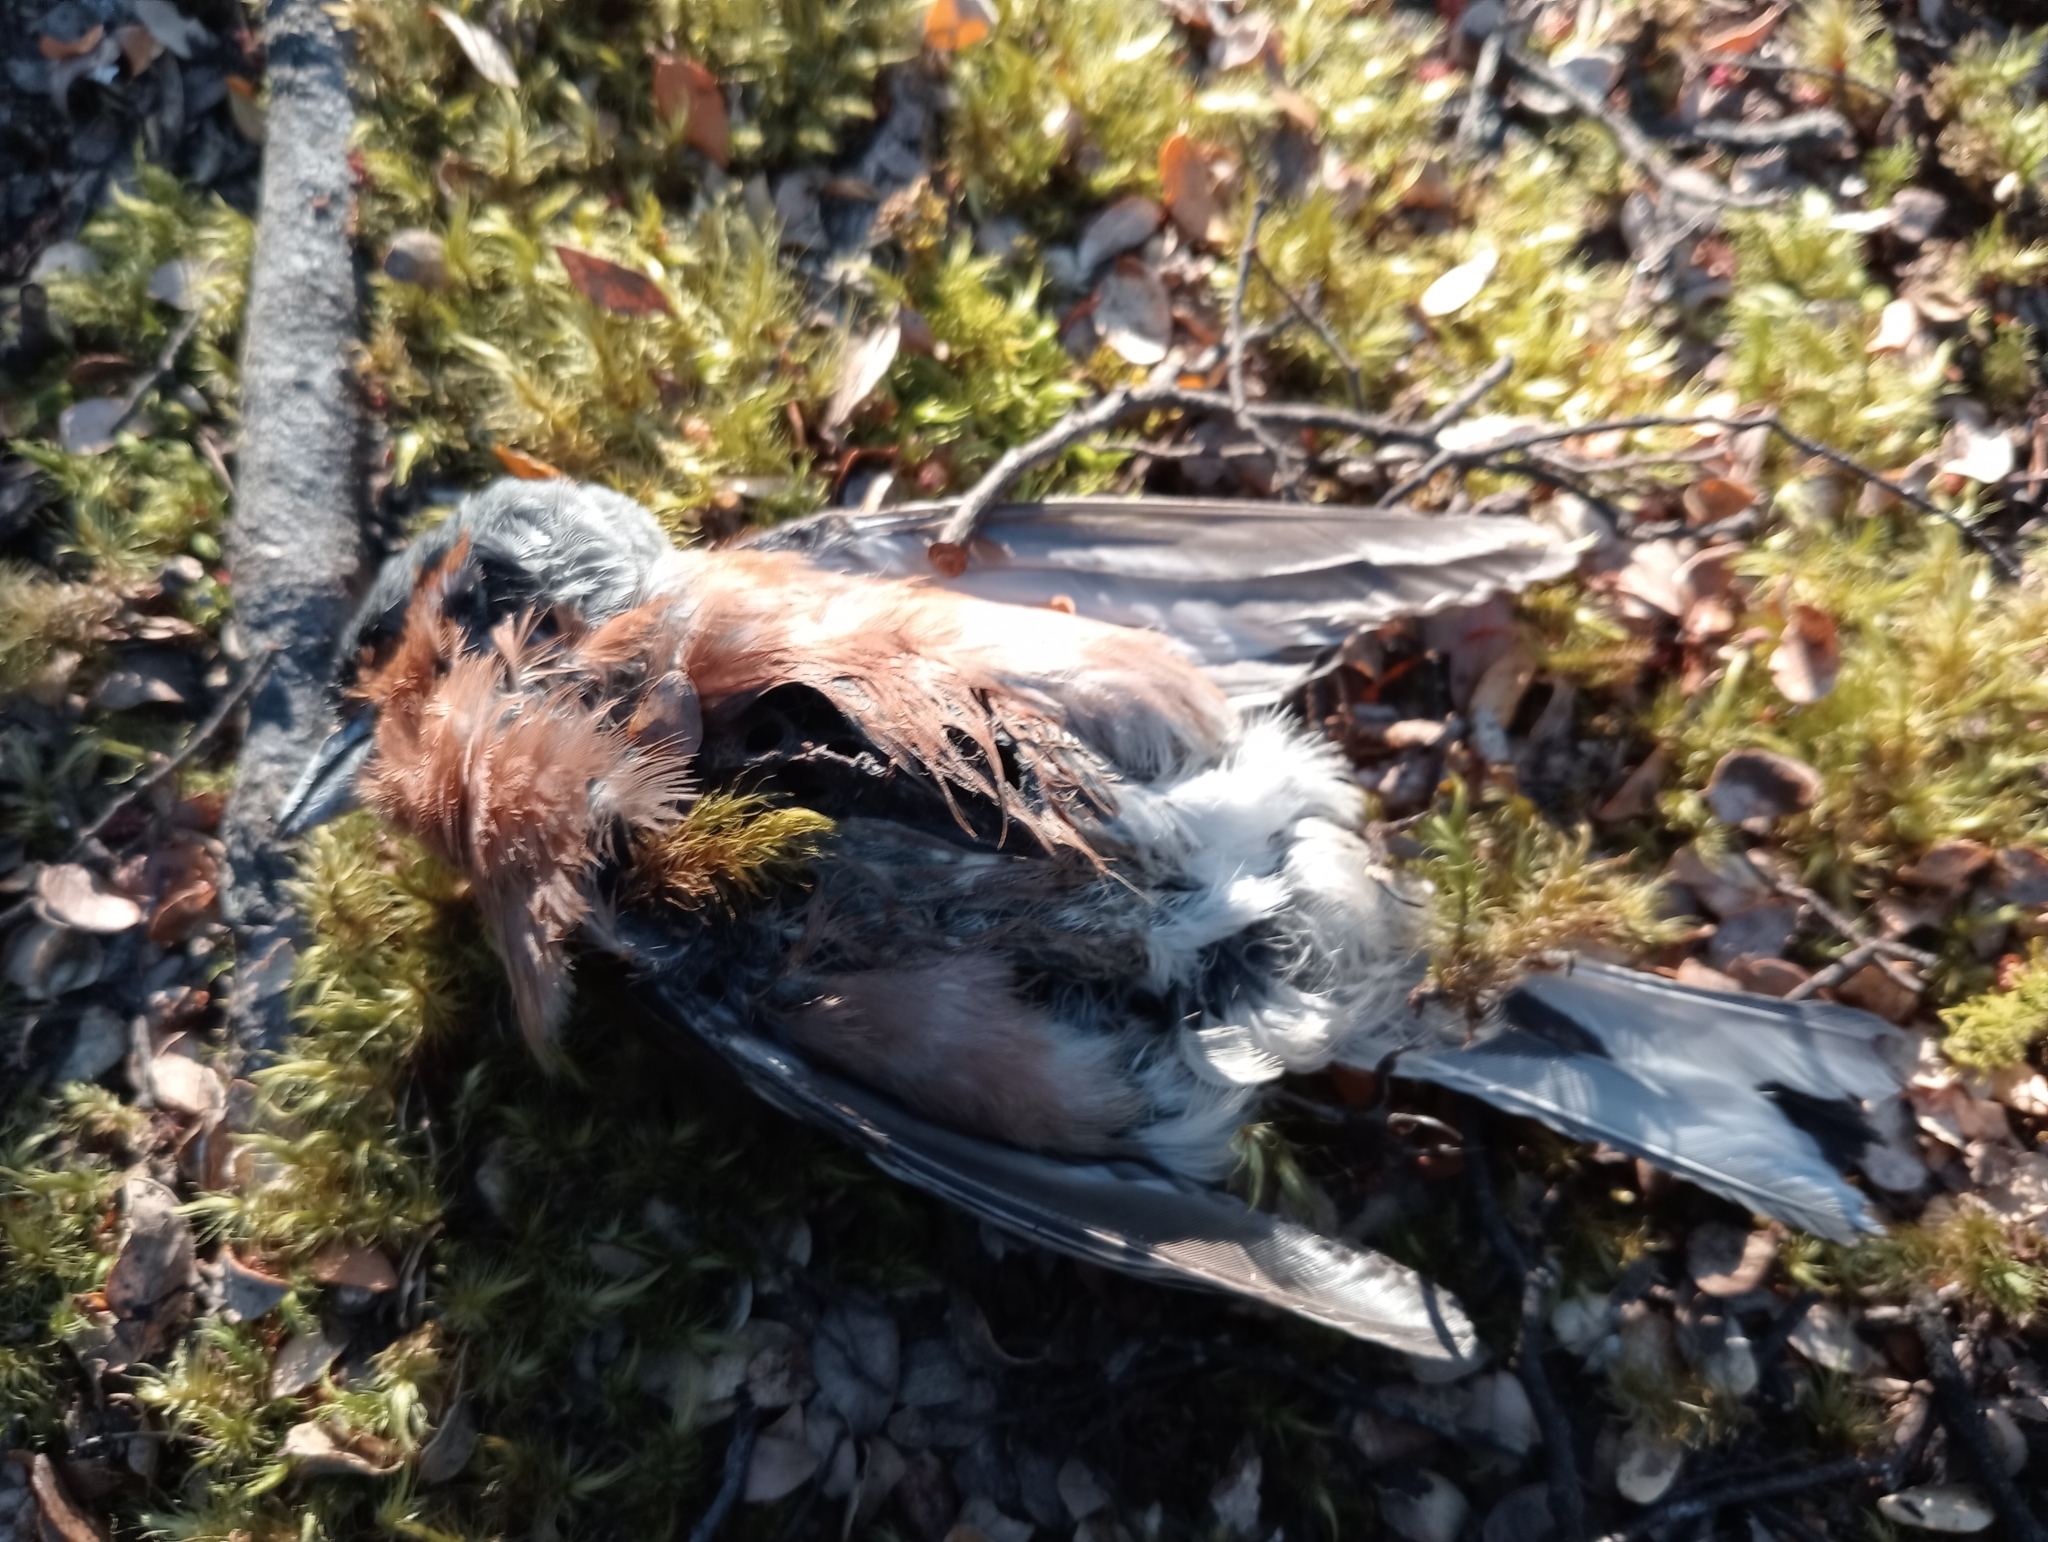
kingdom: Animalia
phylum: Chordata
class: Aves
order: Passeriformes
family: Fringillidae
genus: Fringilla
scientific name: Fringilla coelebs
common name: Common chaffinch
